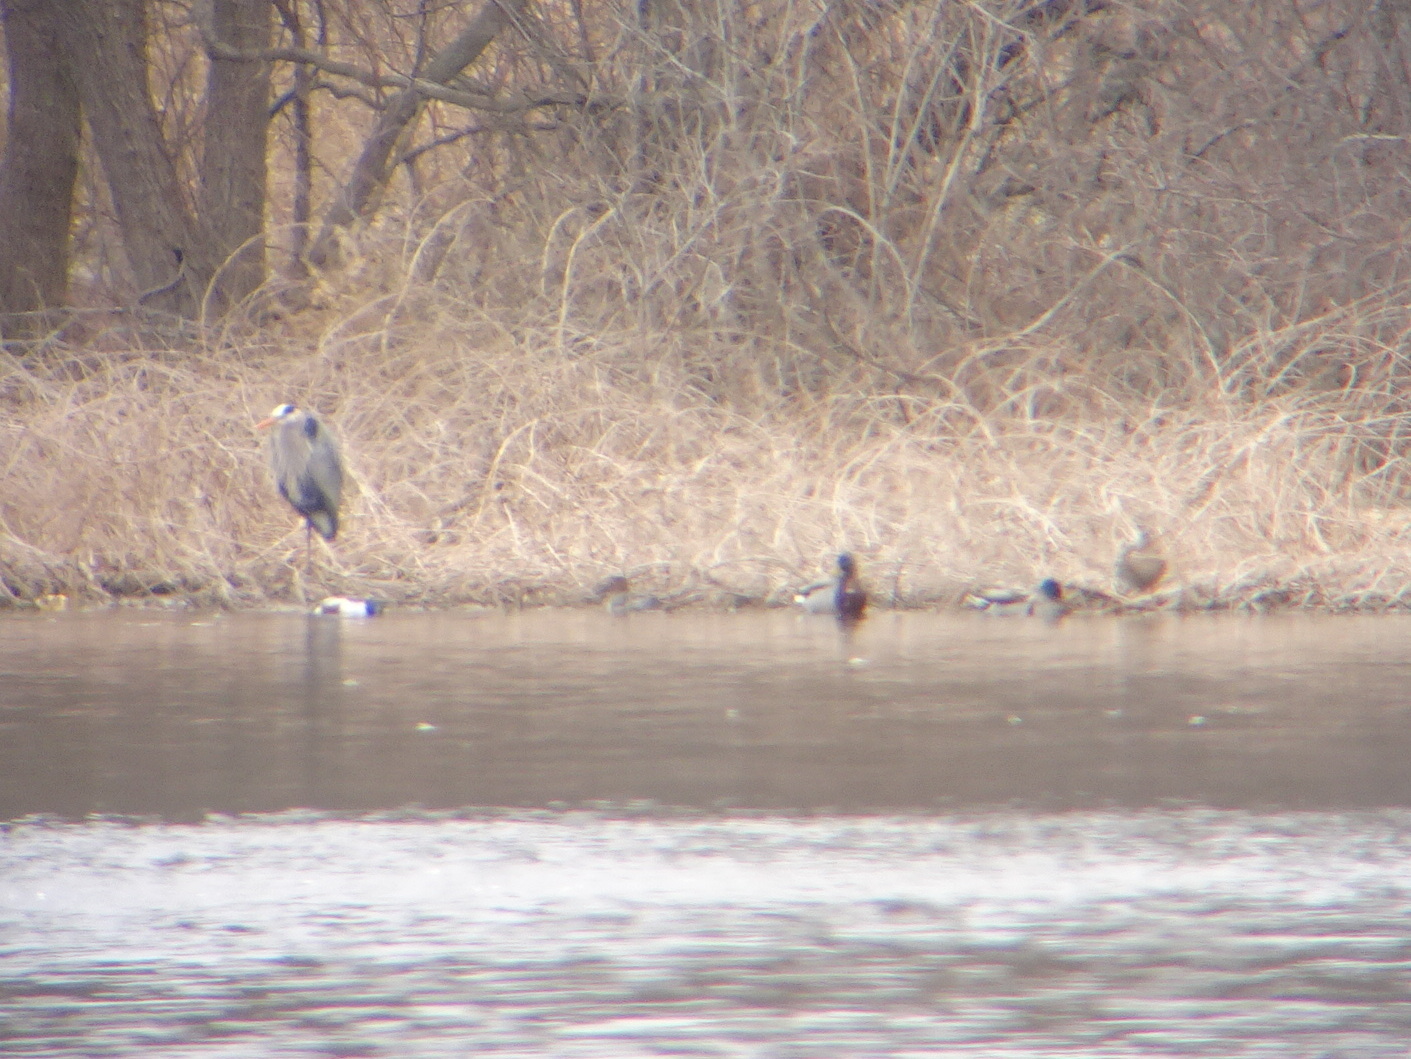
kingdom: Animalia
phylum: Chordata
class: Aves
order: Pelecaniformes
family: Ardeidae
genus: Ardea
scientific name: Ardea herodias
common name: Great blue heron
